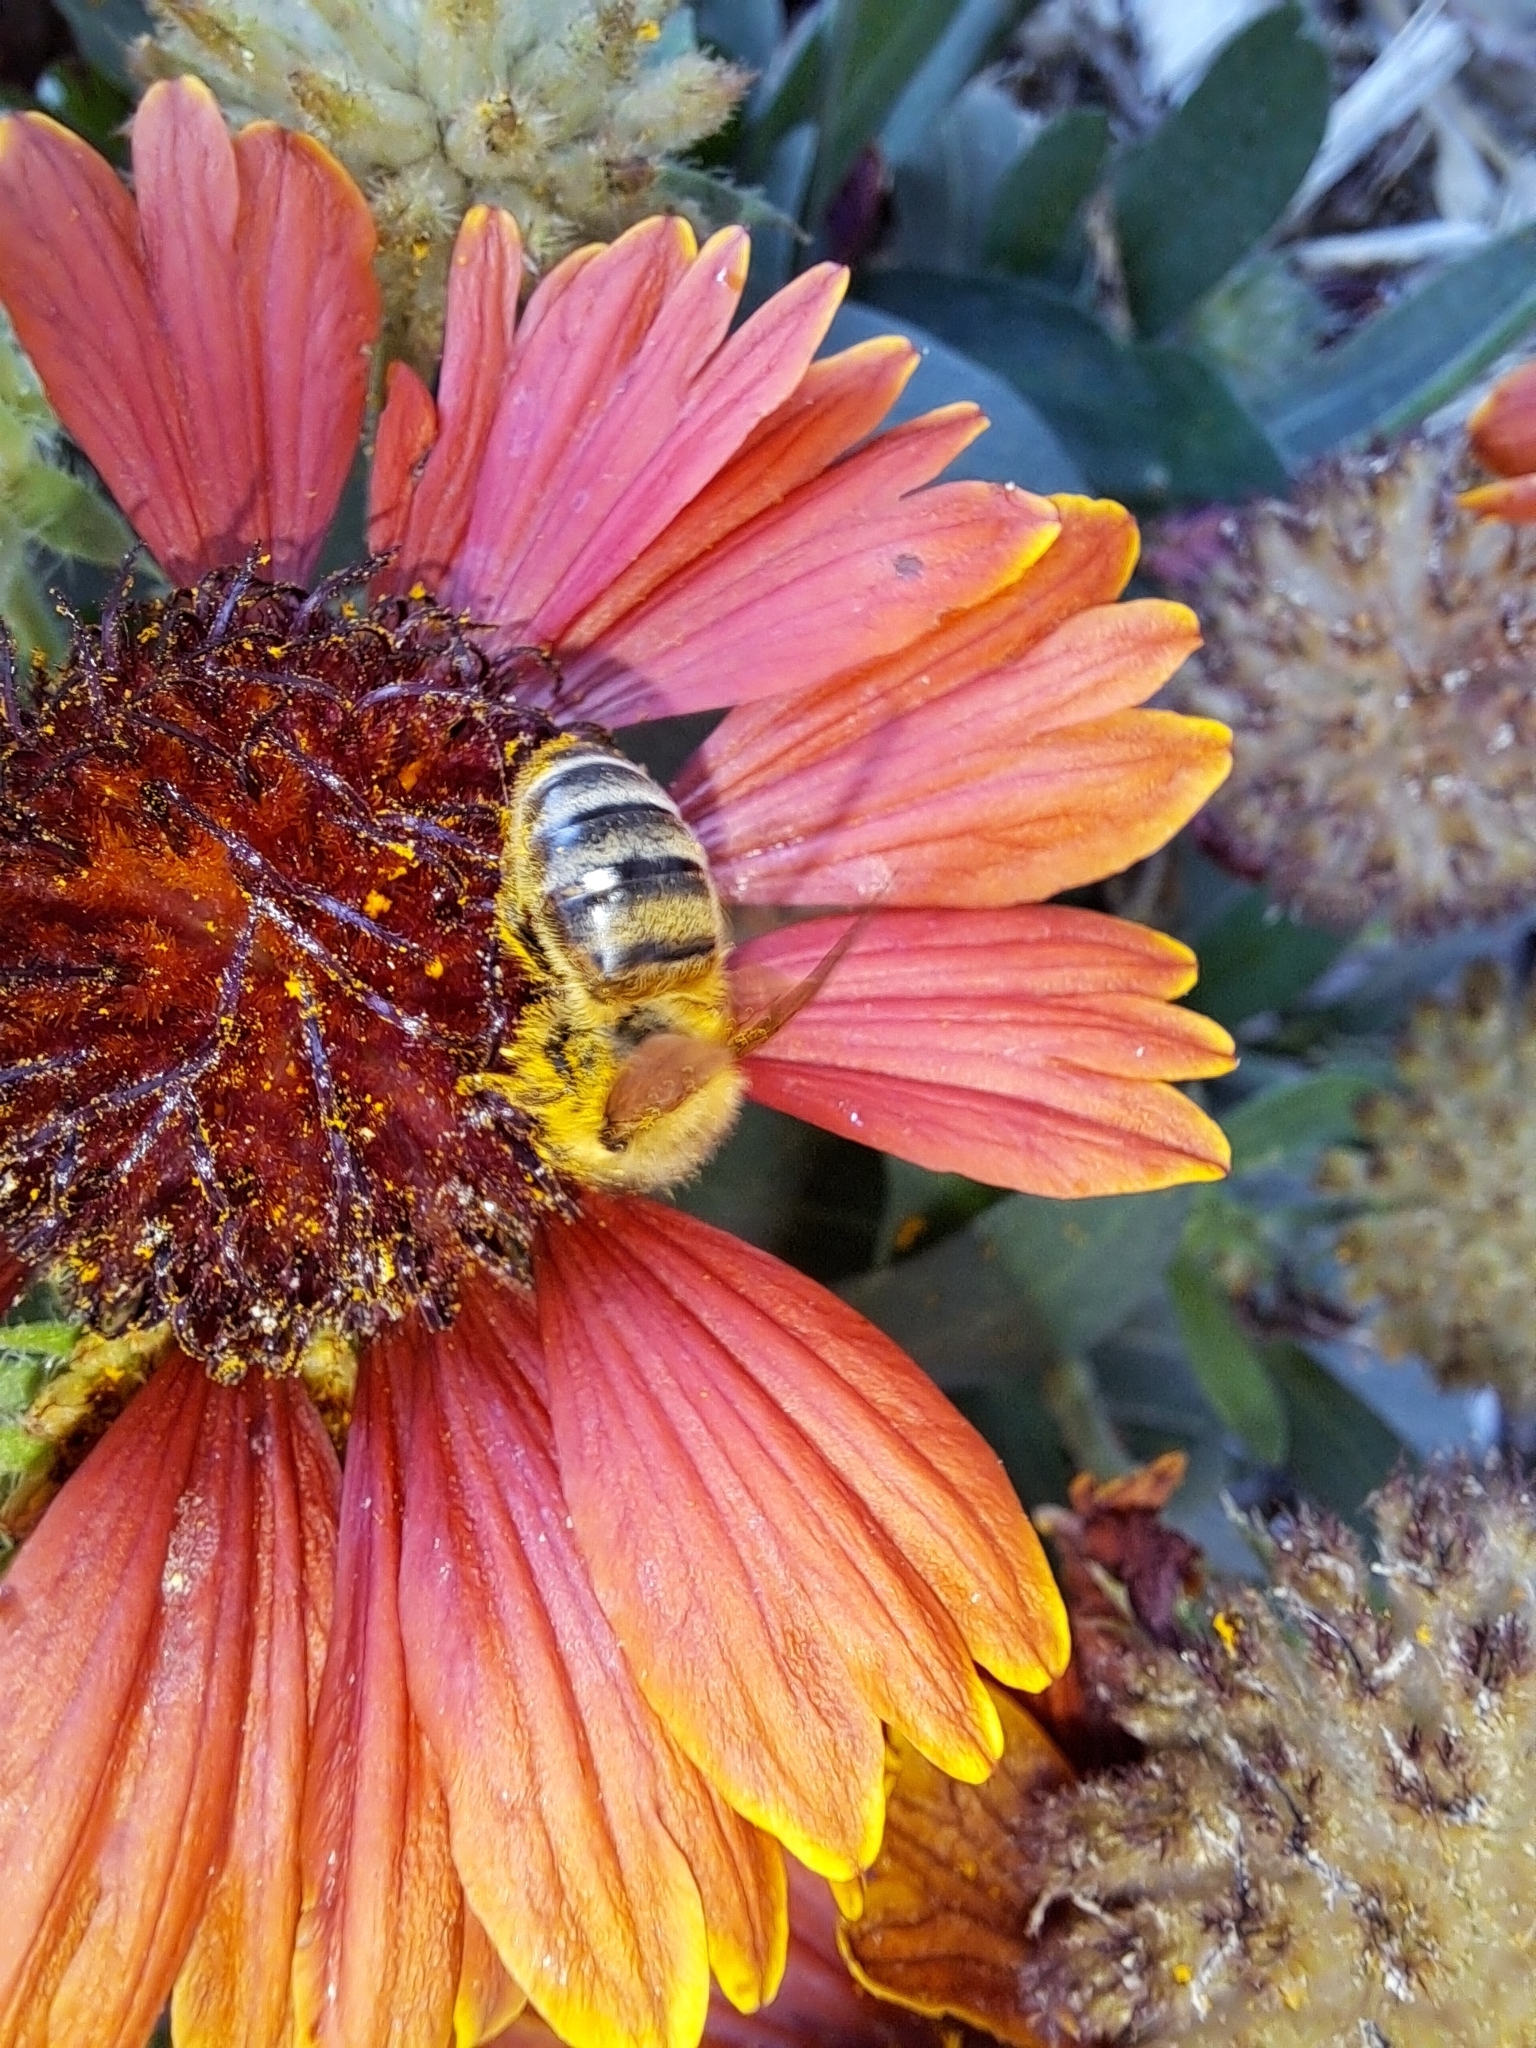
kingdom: Animalia
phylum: Arthropoda
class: Insecta
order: Hymenoptera
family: Apidae
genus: Apis
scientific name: Apis mellifera
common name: Honey bee
